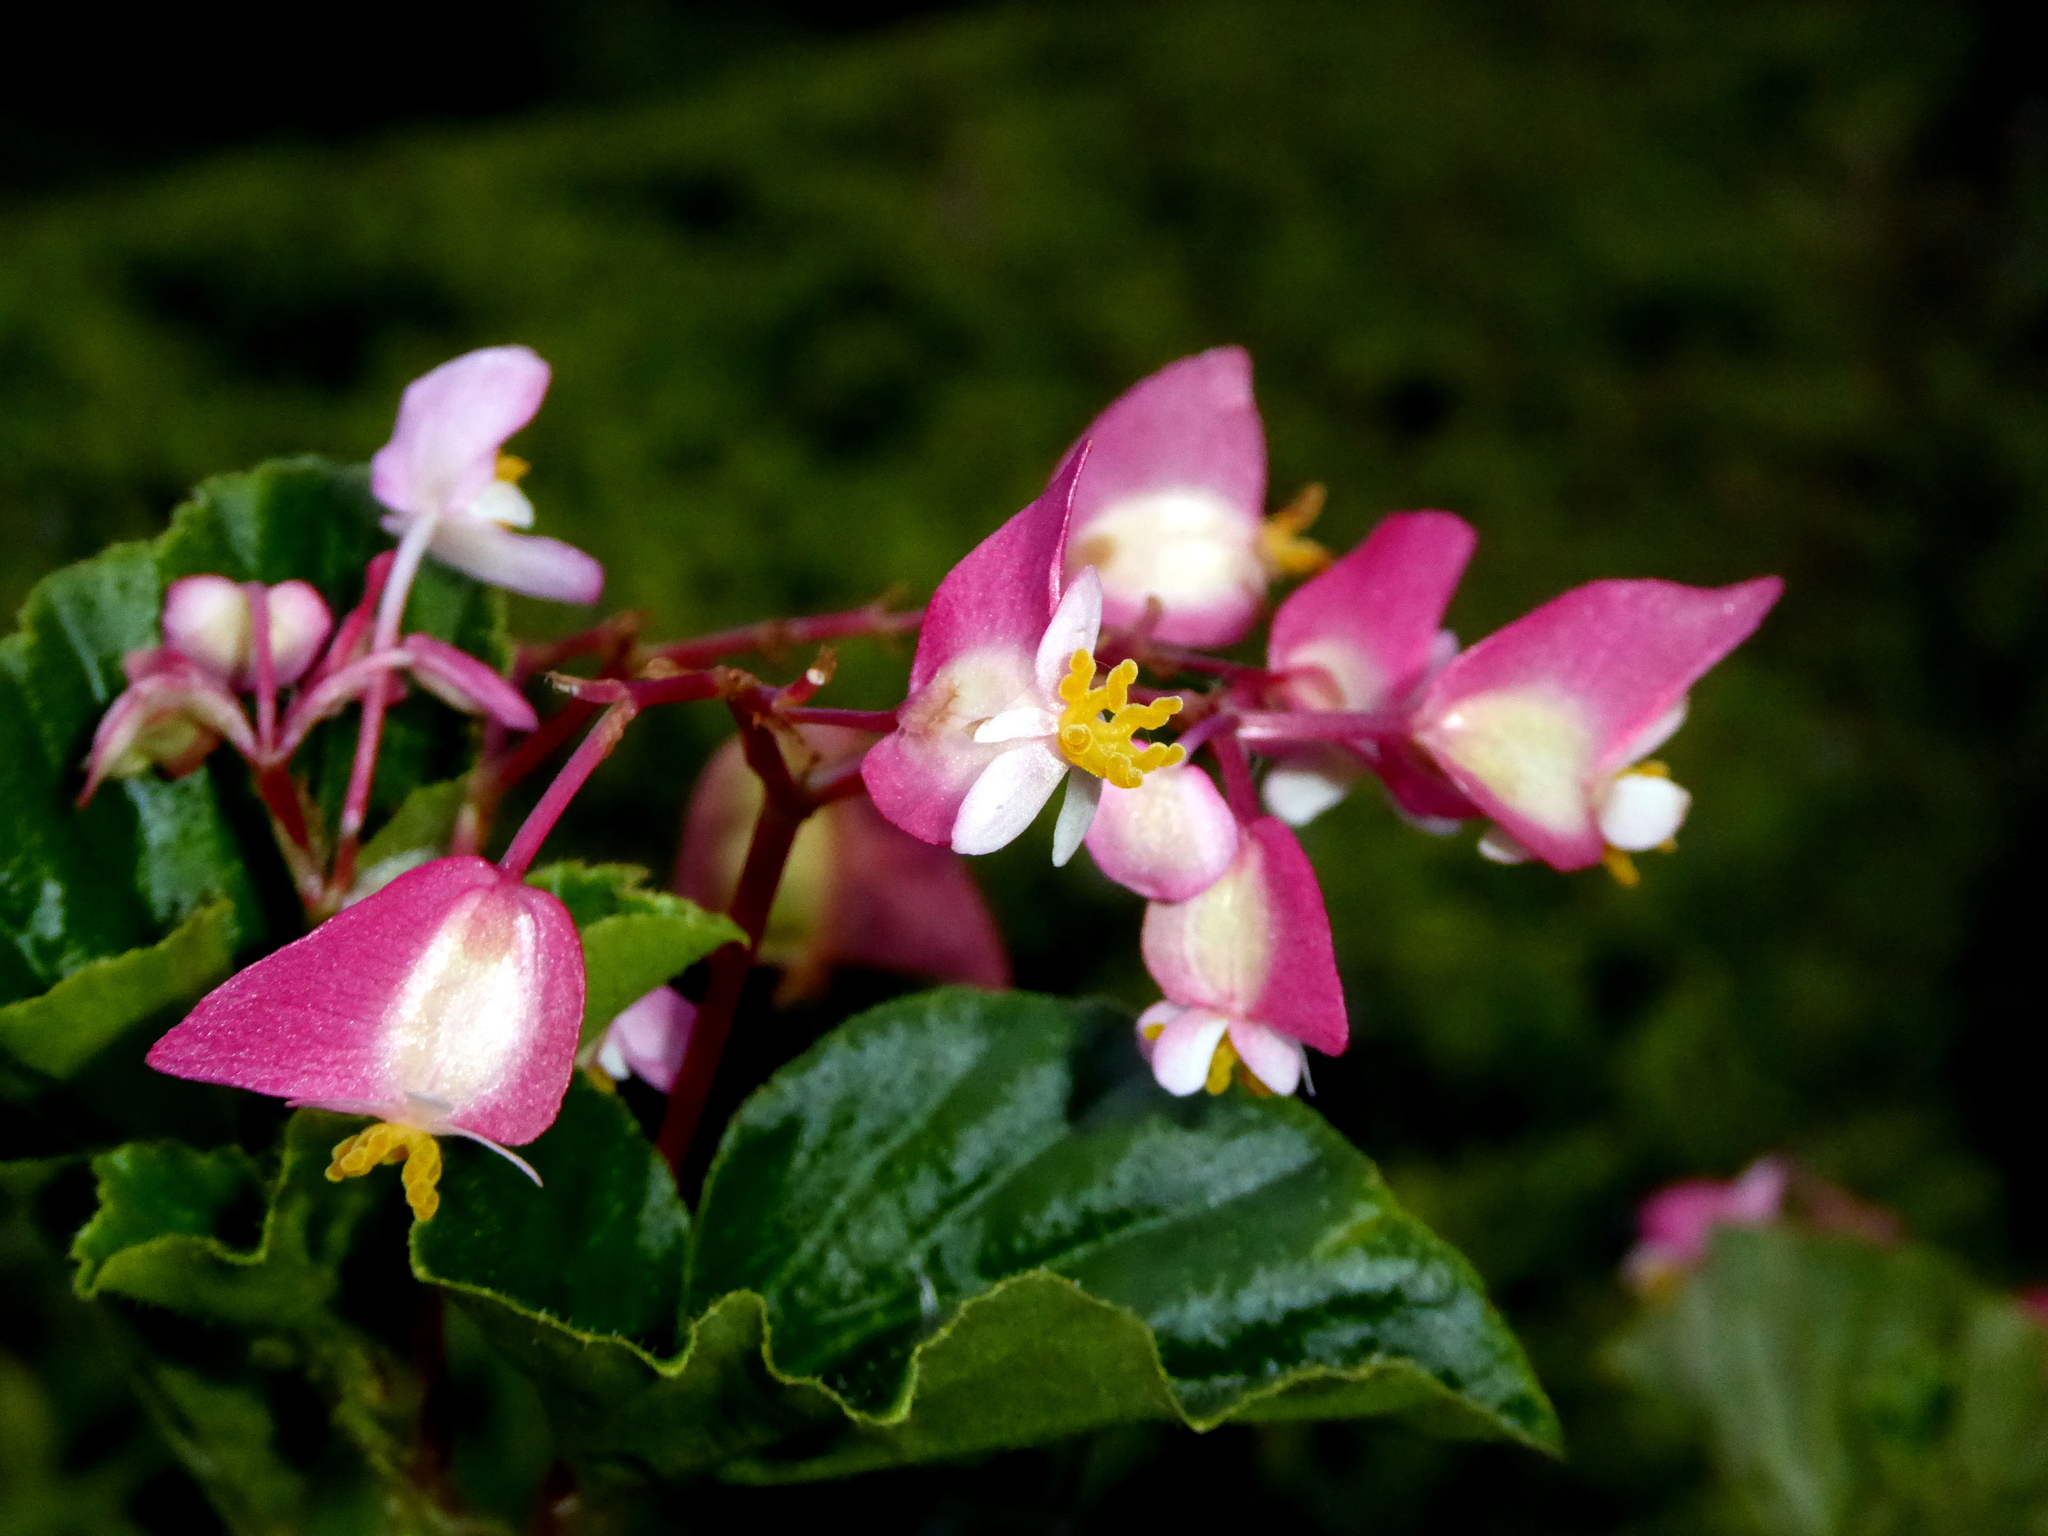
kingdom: Plantae
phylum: Tracheophyta
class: Magnoliopsida
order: Cucurbitales
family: Begoniaceae
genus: Begonia
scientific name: Begonia cucullata
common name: Clubbed begonia
